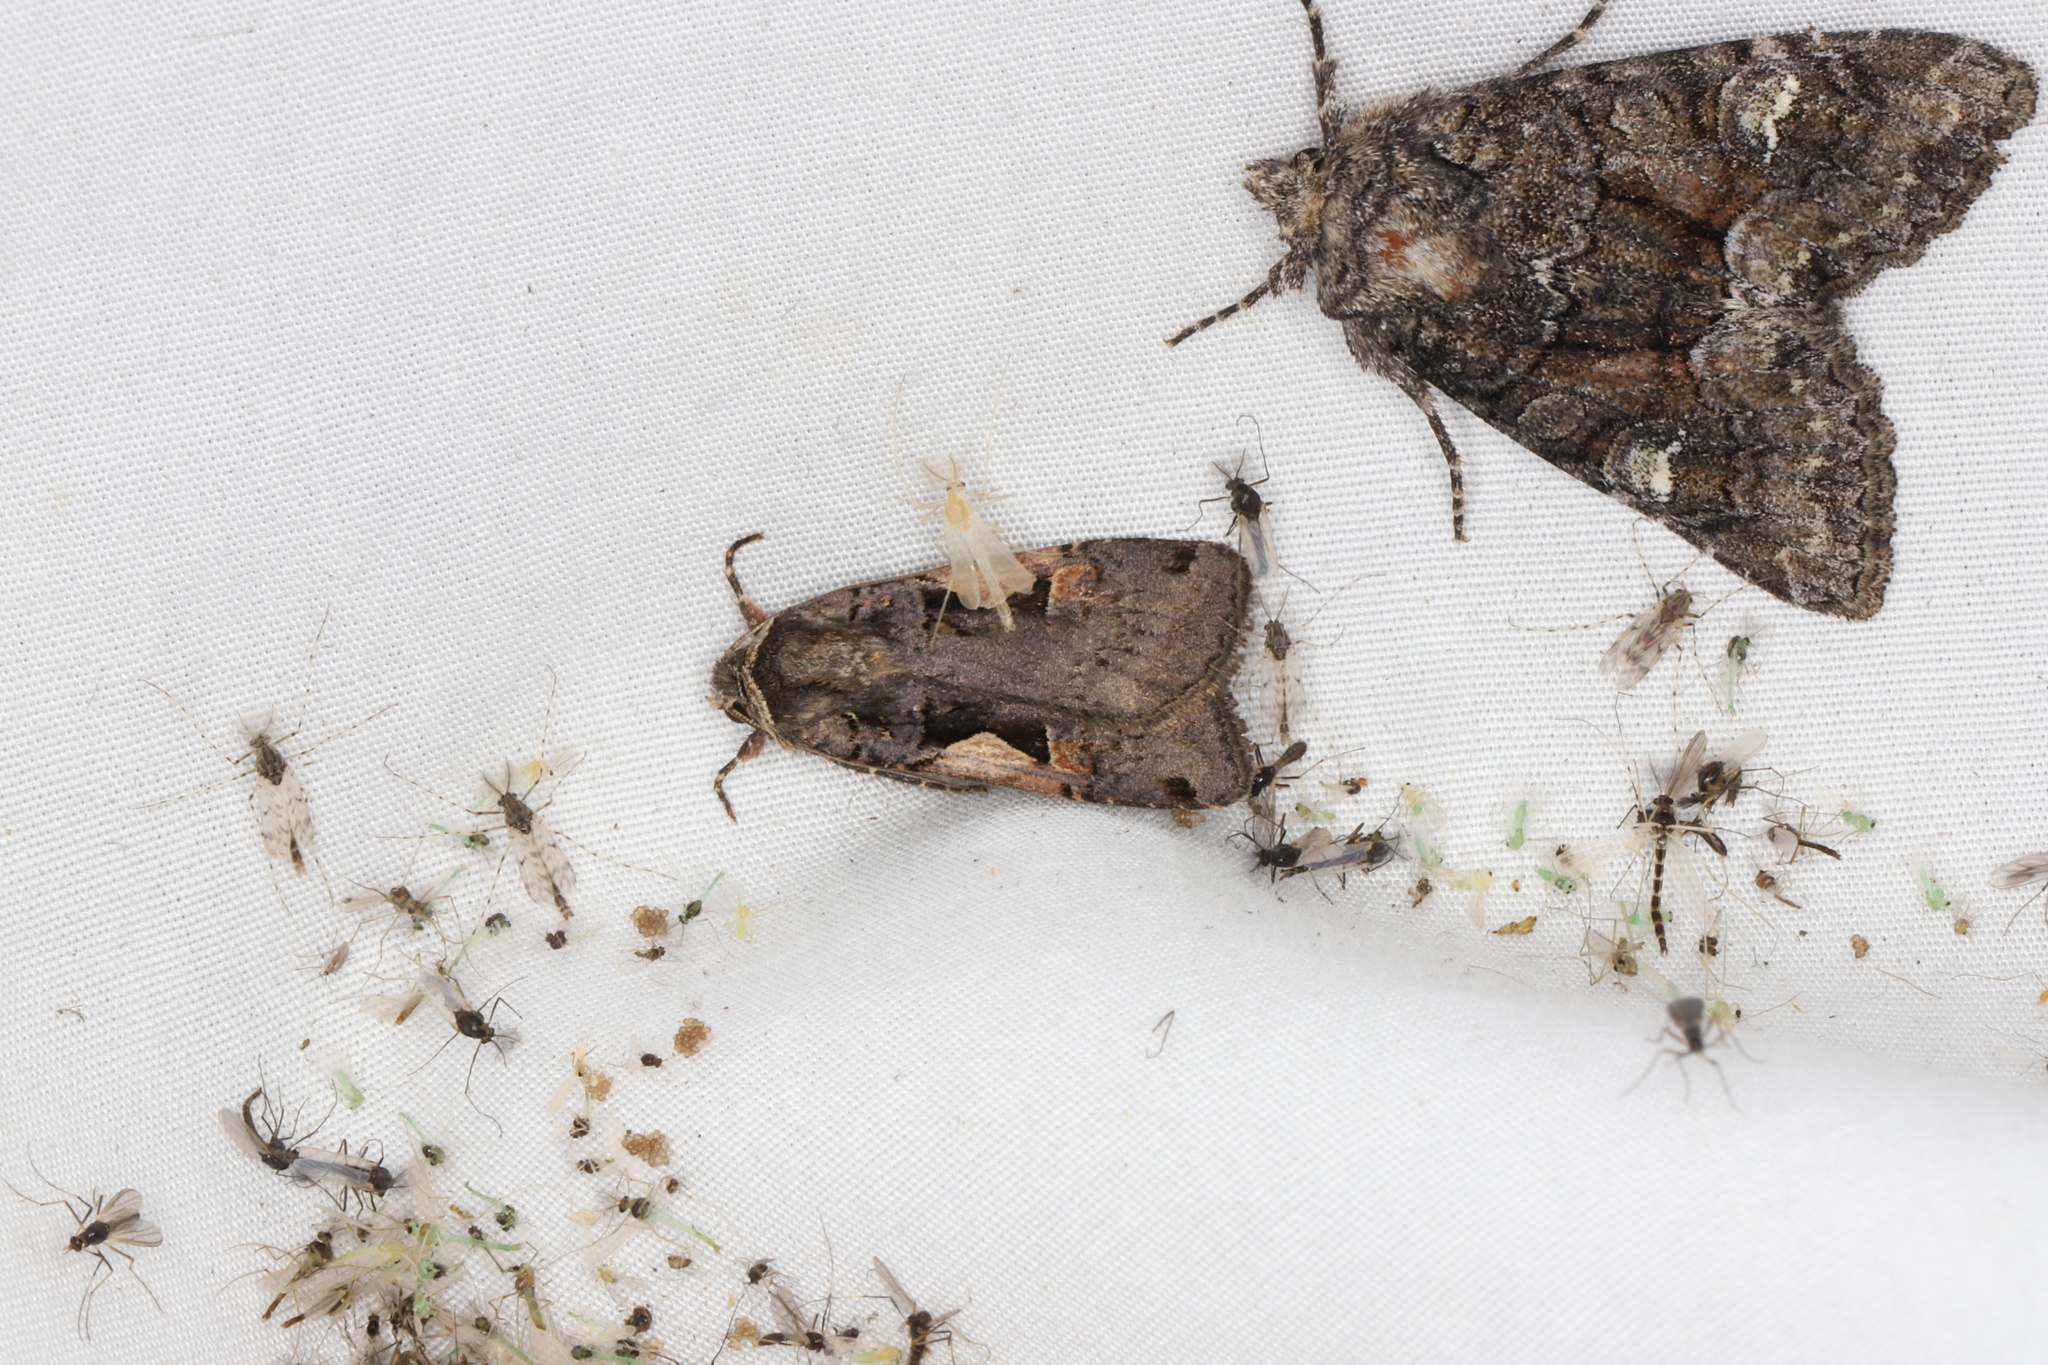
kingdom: Animalia
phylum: Arthropoda
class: Insecta
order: Lepidoptera
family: Noctuidae
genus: Xestia
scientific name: Xestia
